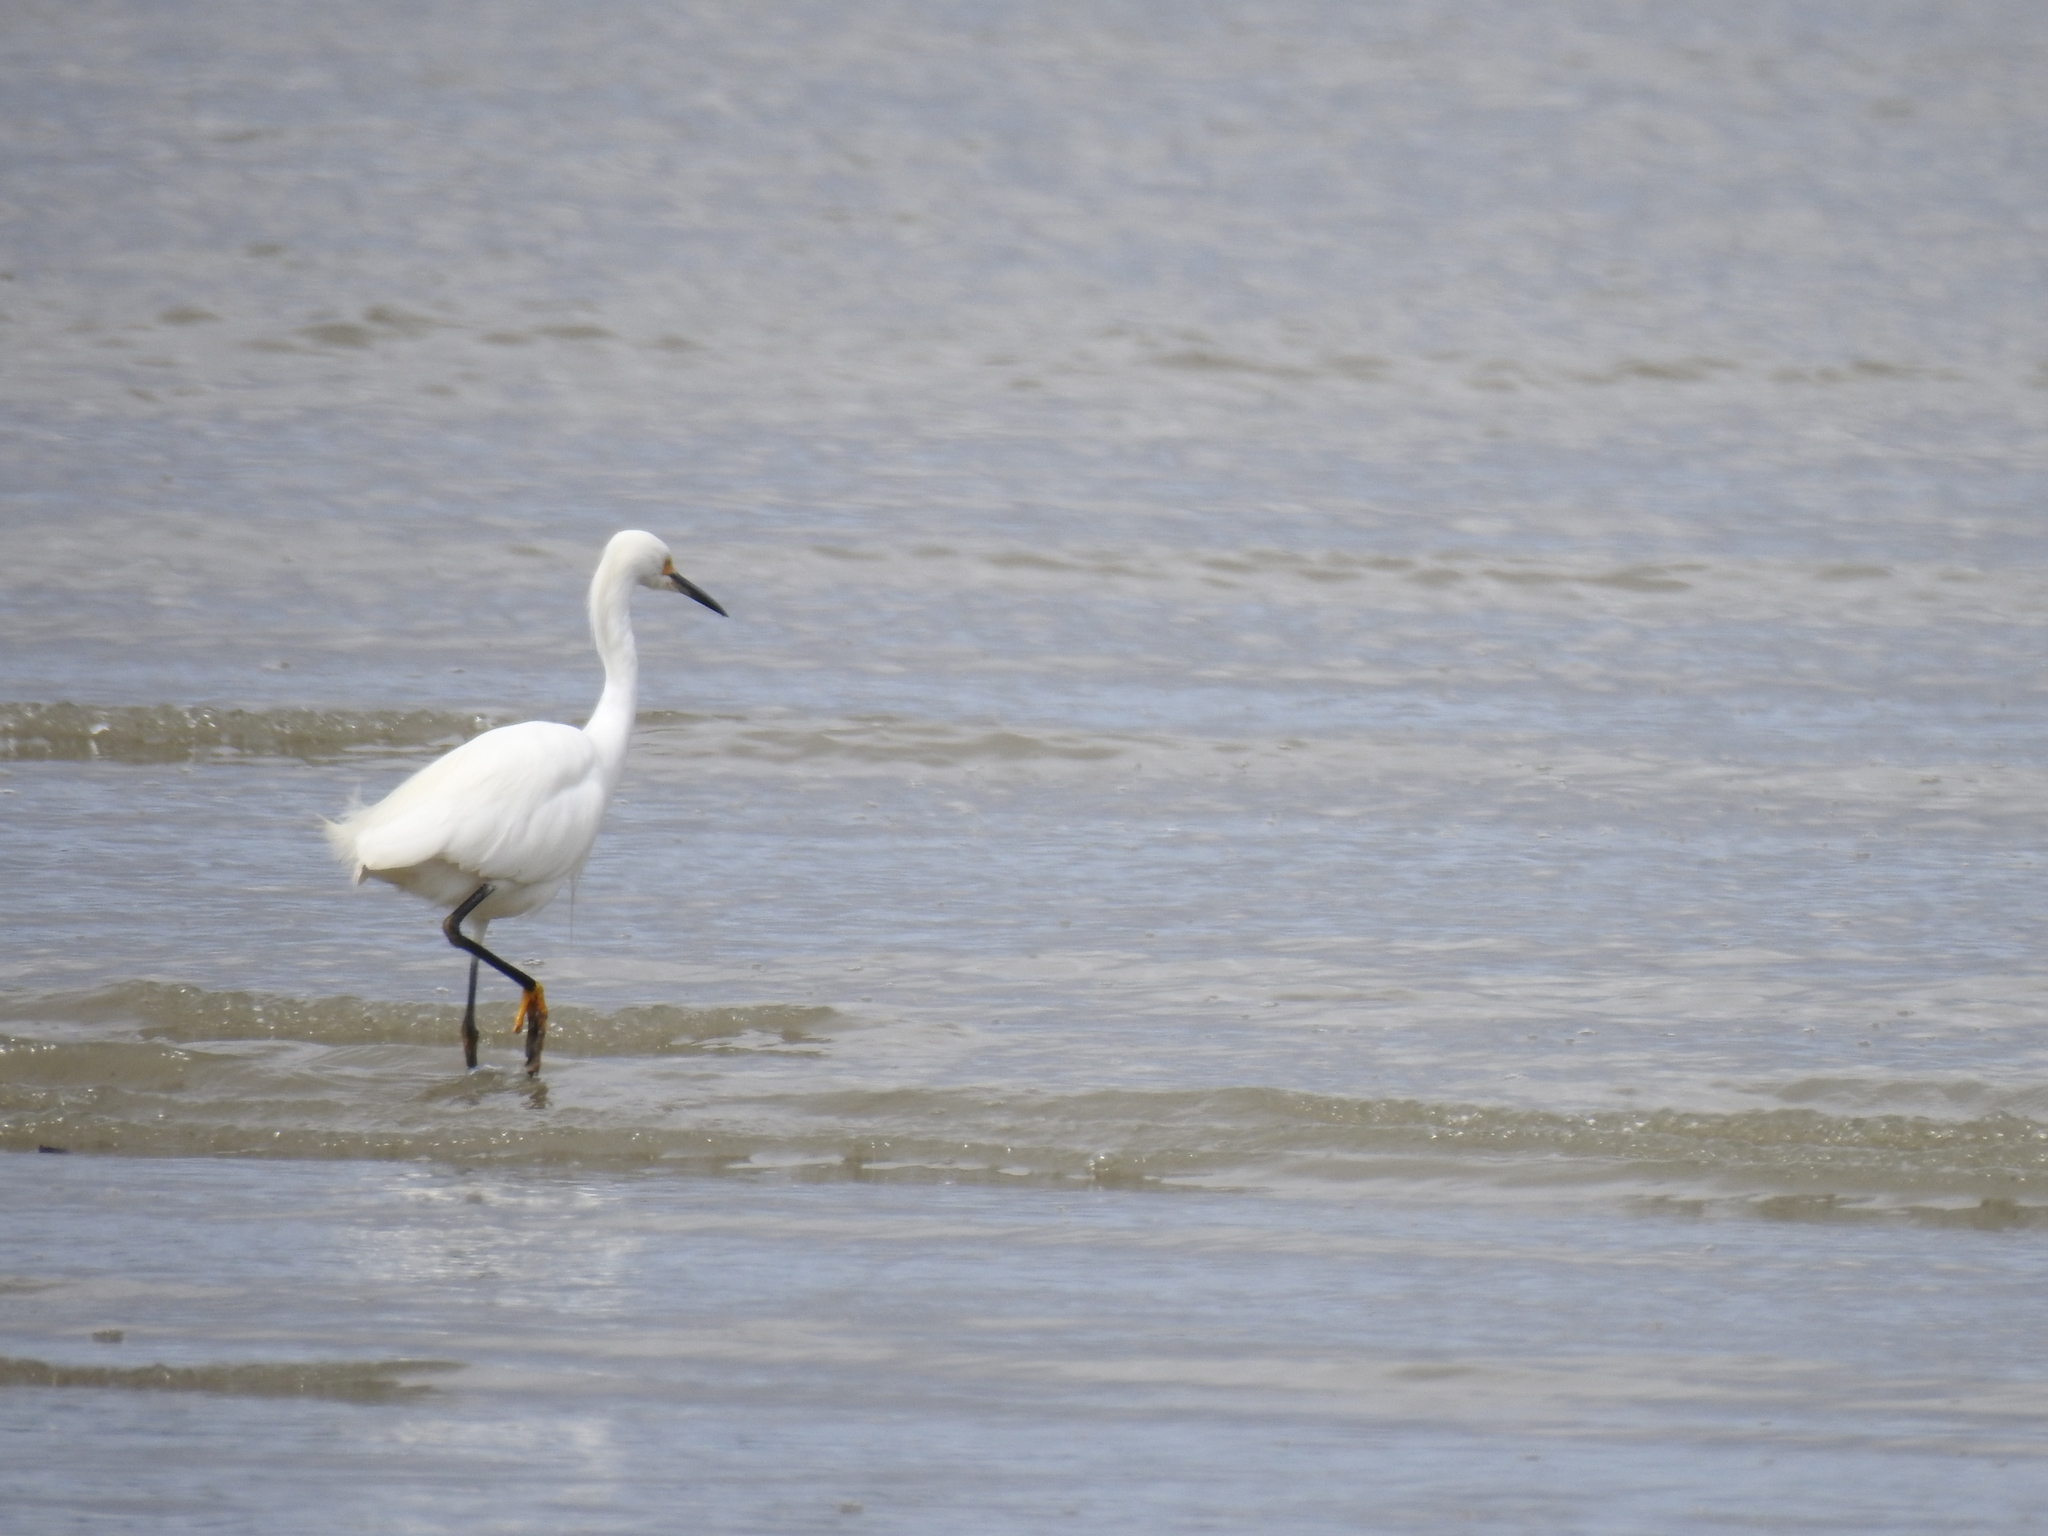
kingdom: Animalia
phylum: Chordata
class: Aves
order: Pelecaniformes
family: Ardeidae
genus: Egretta
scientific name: Egretta thula
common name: Snowy egret
